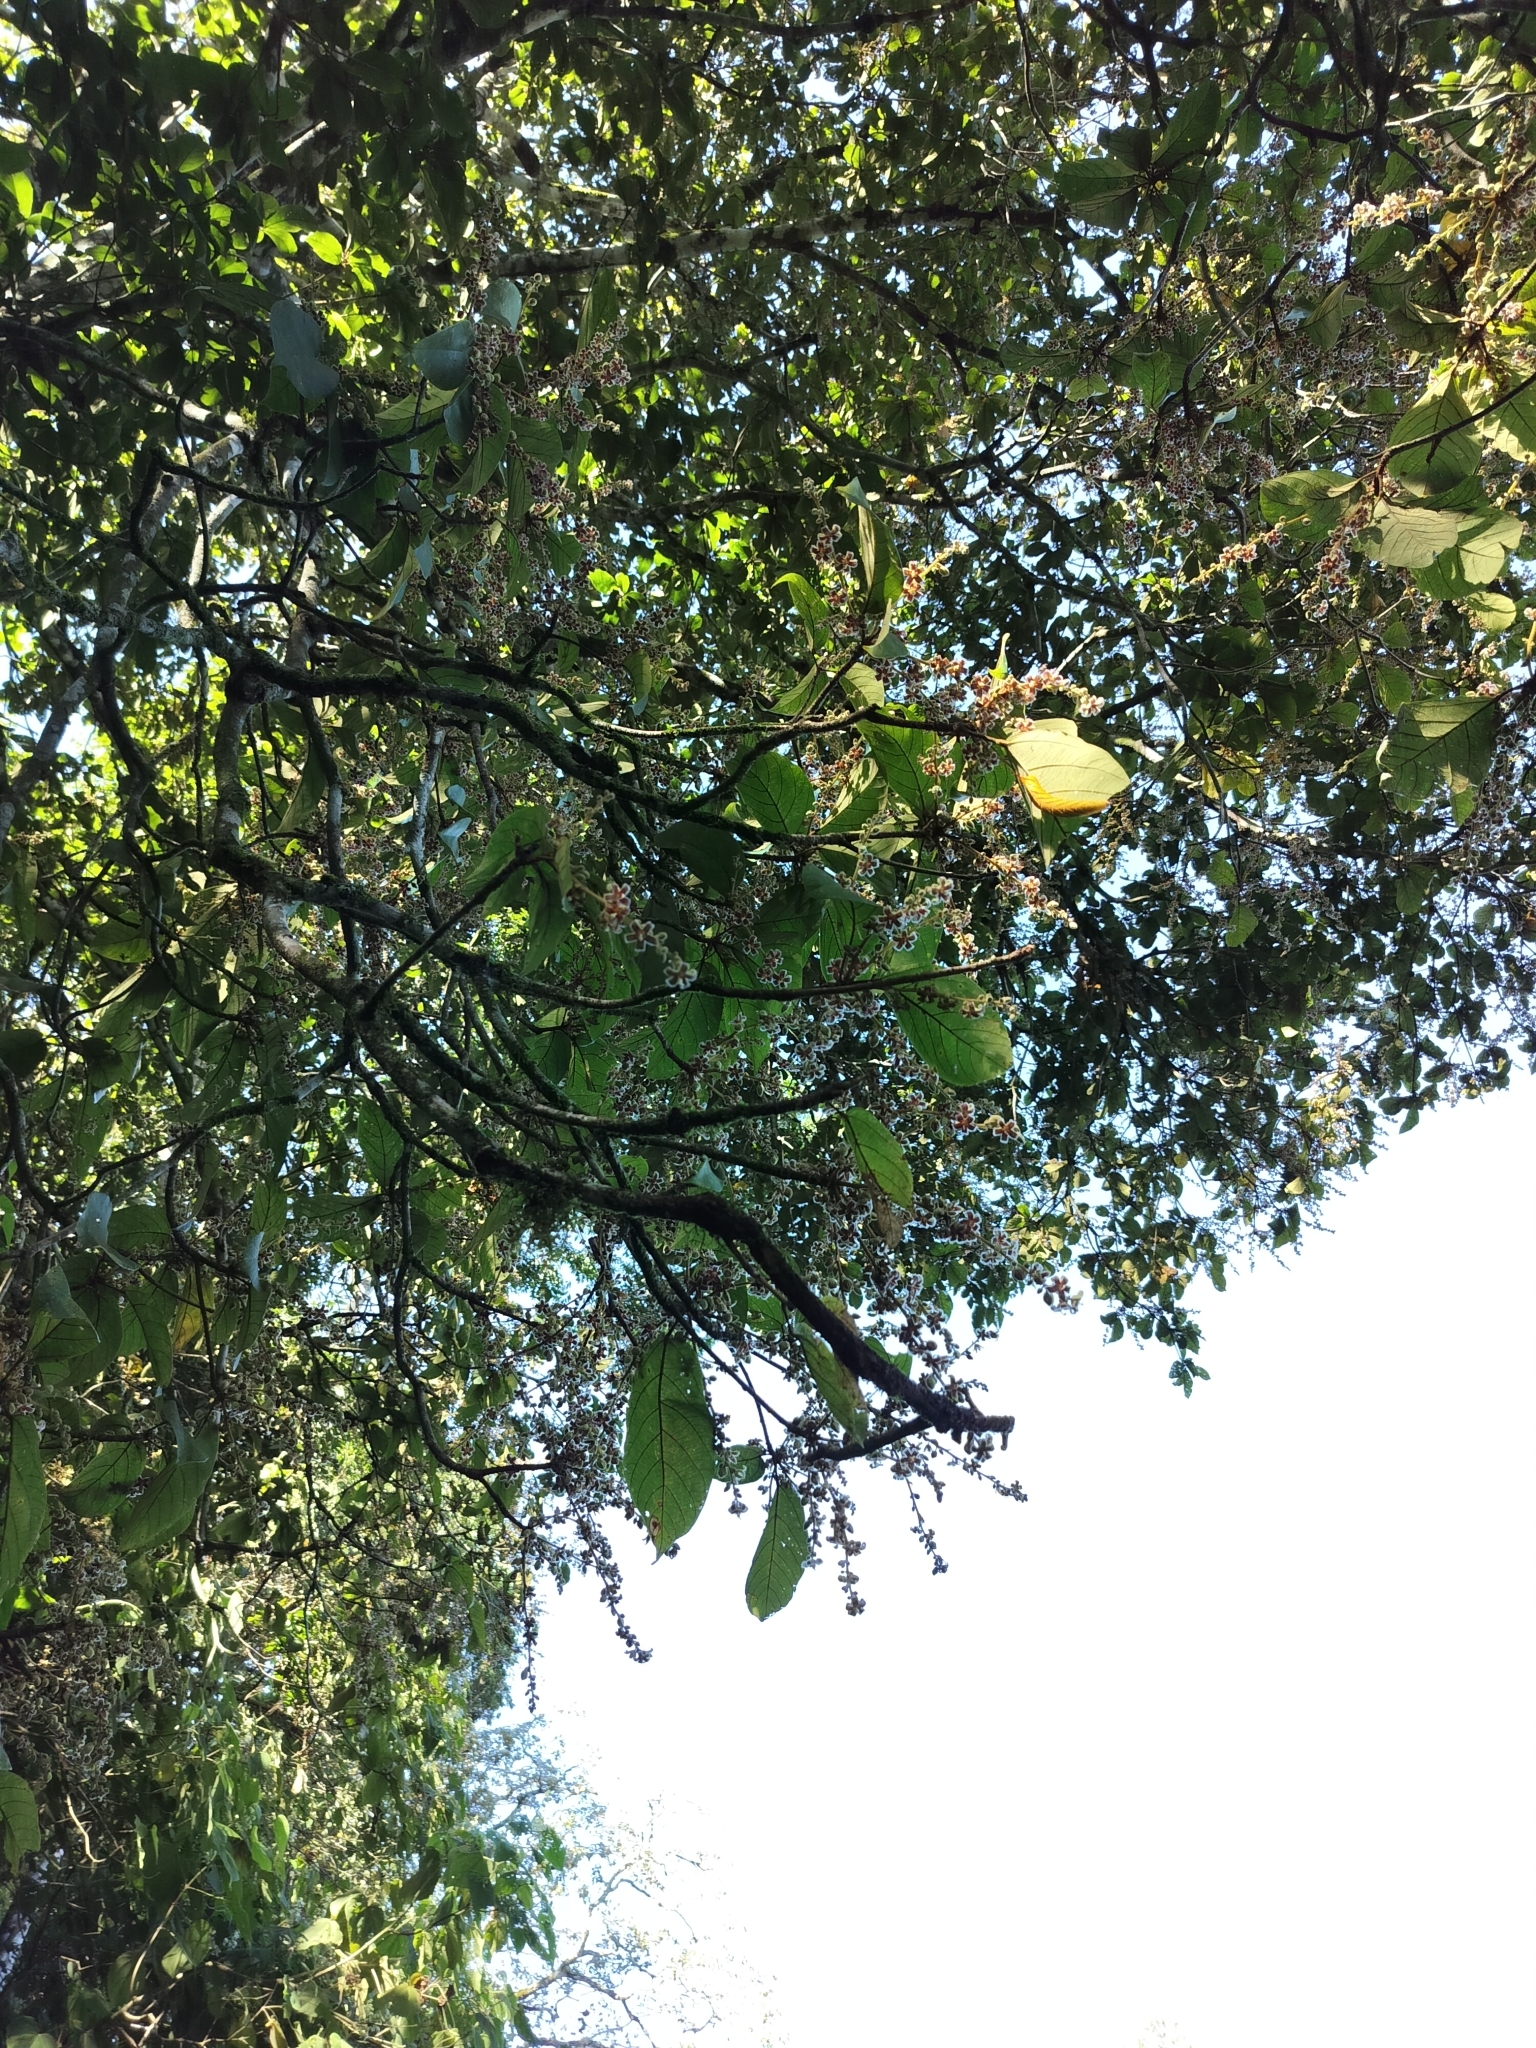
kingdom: Plantae
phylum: Tracheophyta
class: Magnoliopsida
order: Malvales
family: Malvaceae
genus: Sterculia
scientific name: Sterculia guttata
